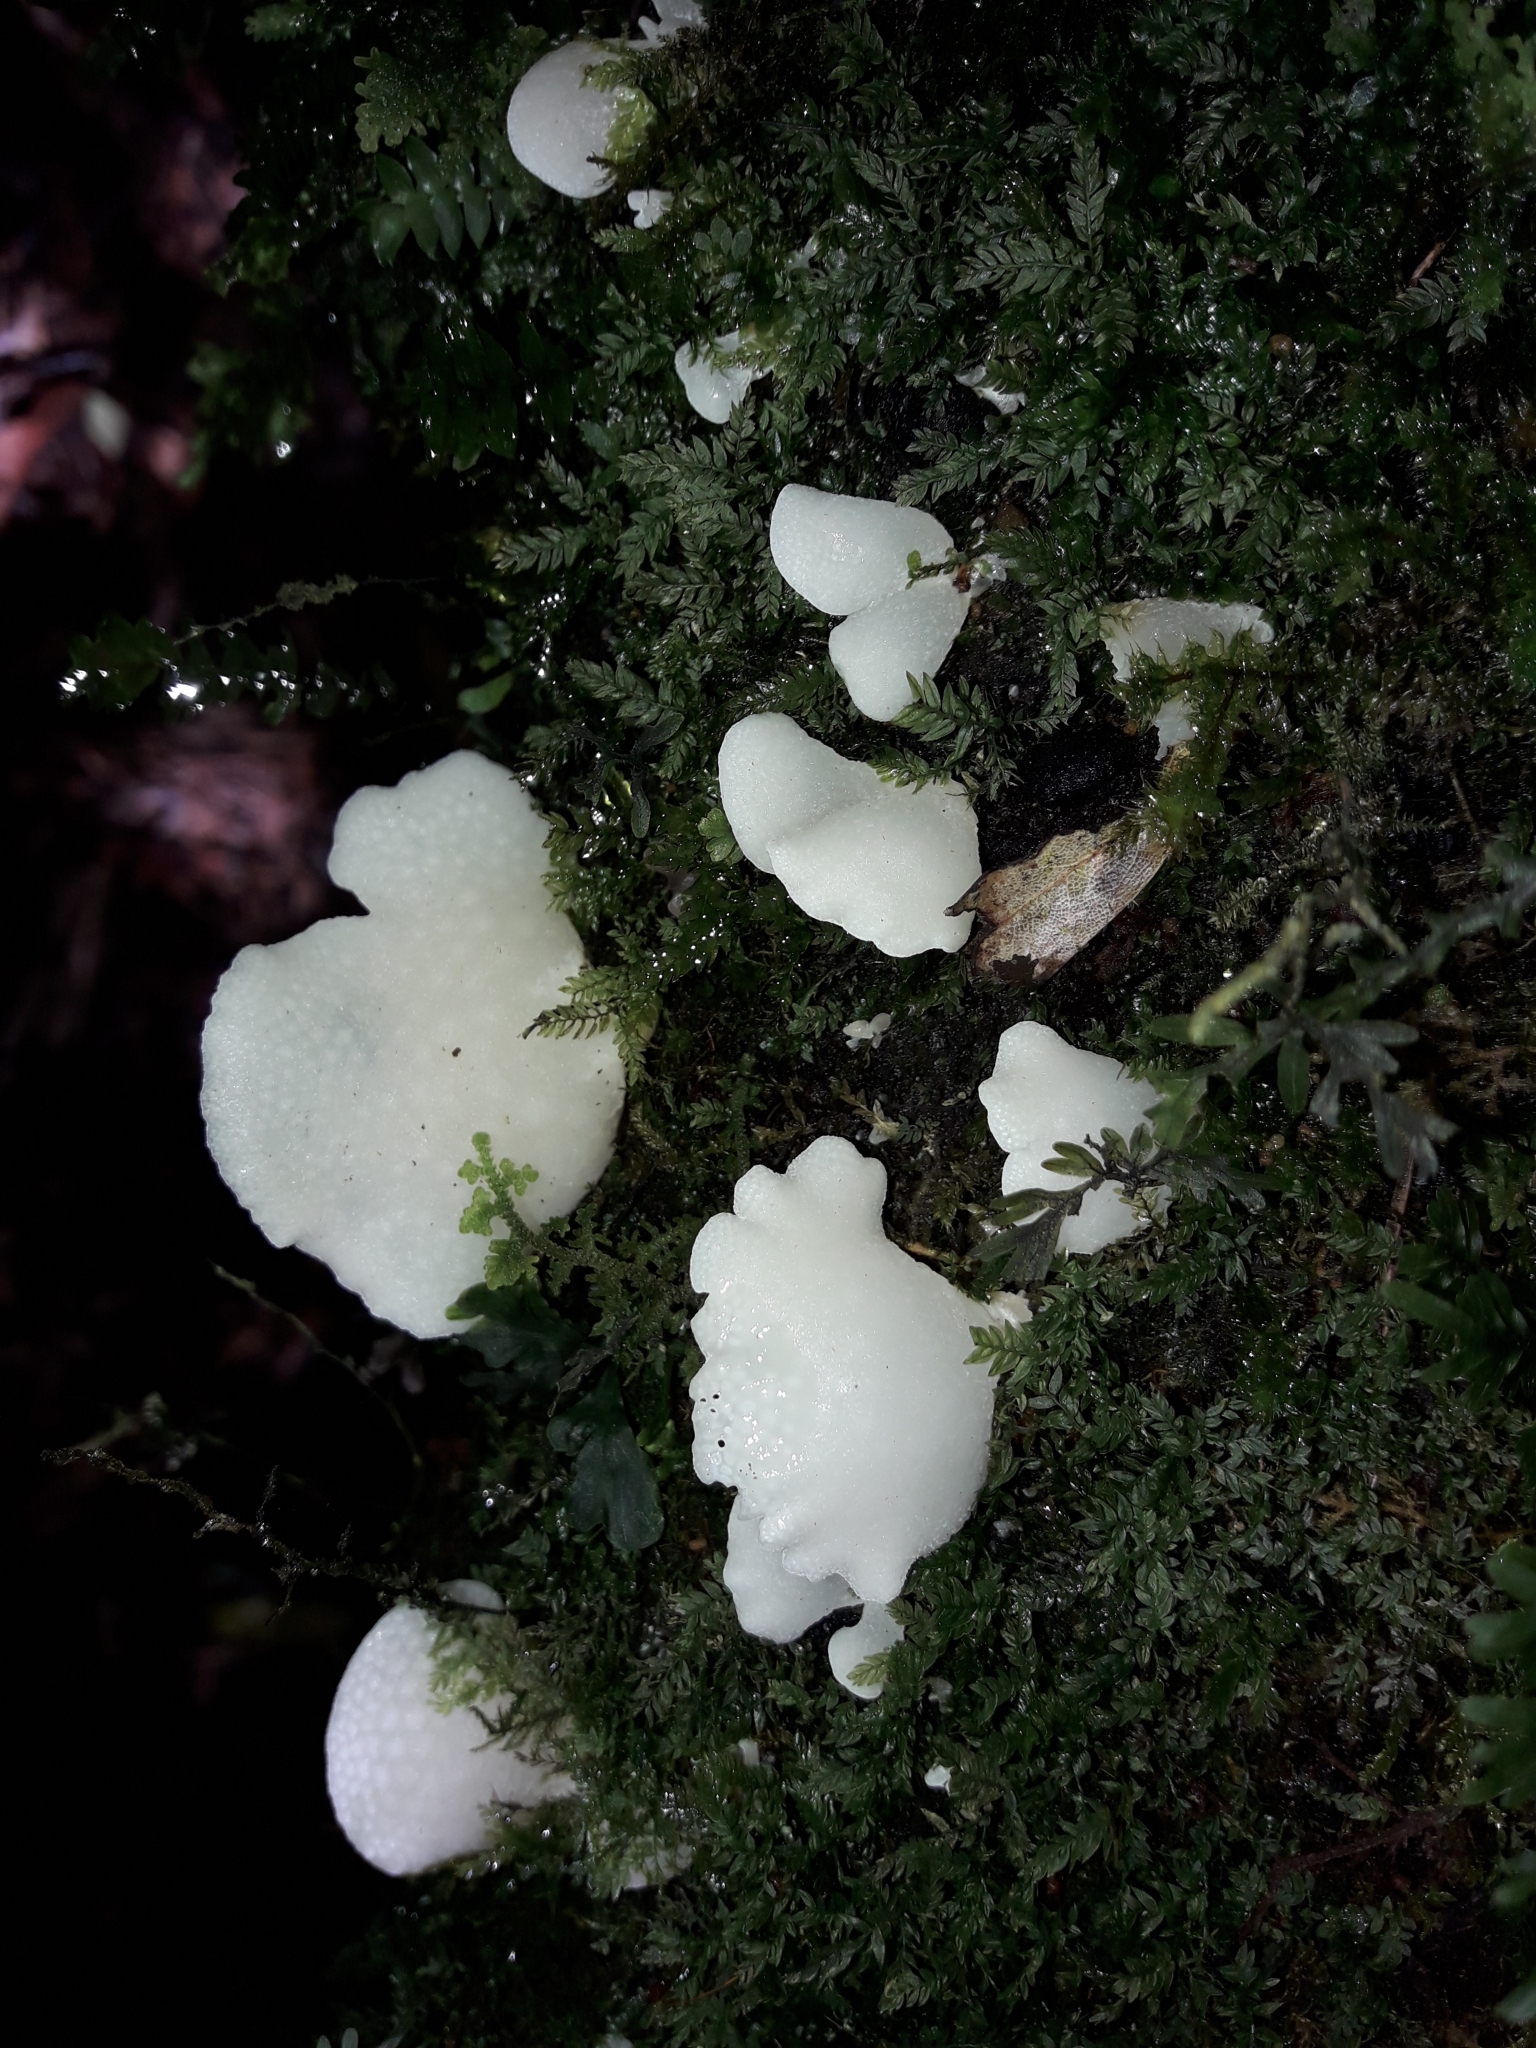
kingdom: Fungi
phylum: Basidiomycota
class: Agaricomycetes
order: Agaricales
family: Mycenaceae
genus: Favolaschia
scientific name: Favolaschia pustulosa
